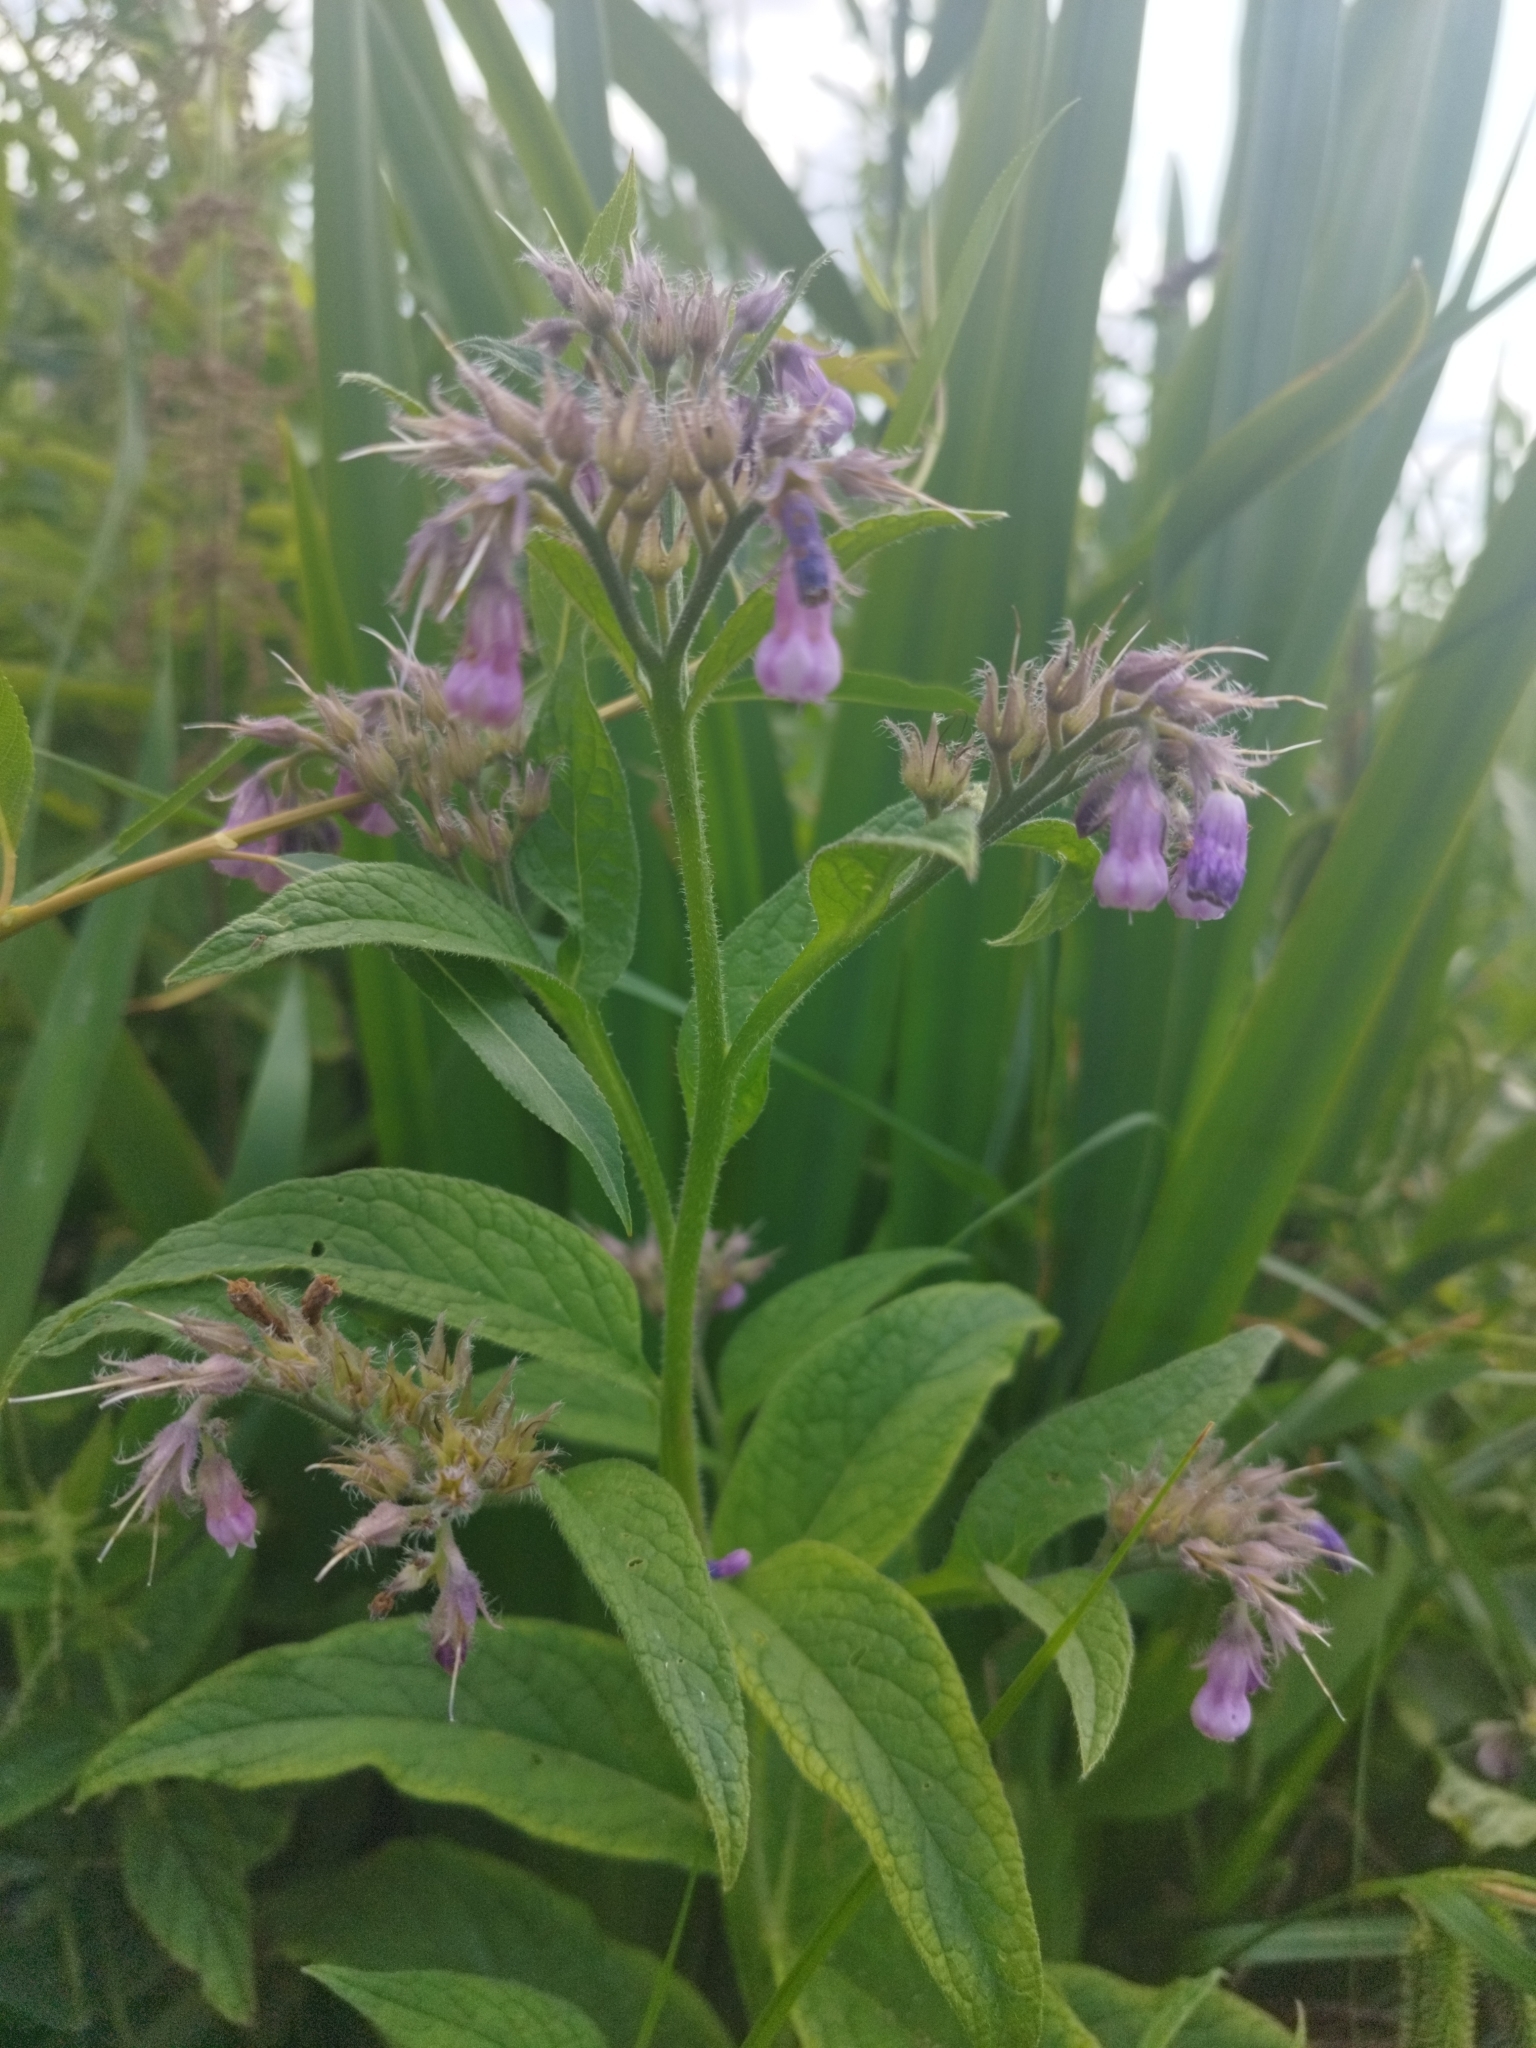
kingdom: Plantae
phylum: Tracheophyta
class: Magnoliopsida
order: Boraginales
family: Boraginaceae
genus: Symphytum
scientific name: Symphytum officinale
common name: Common comfrey
